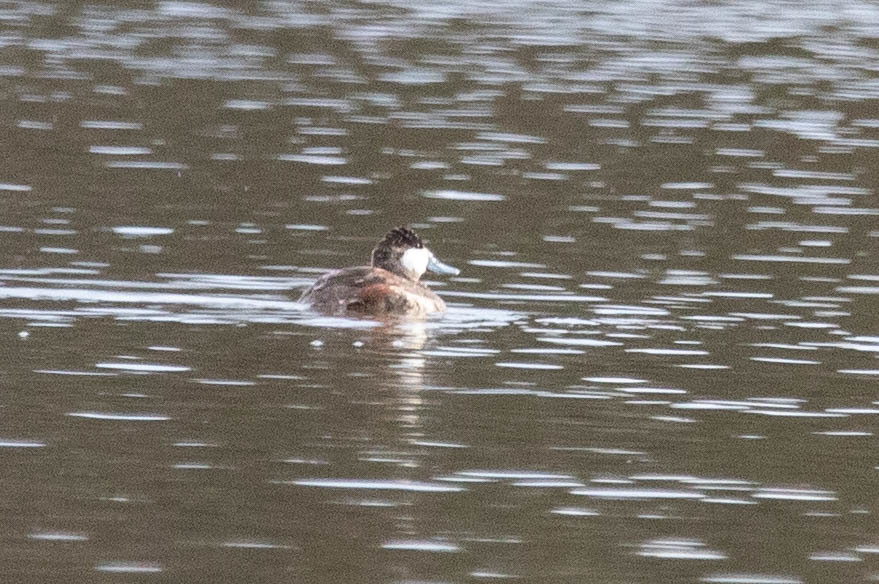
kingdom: Animalia
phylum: Chordata
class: Aves
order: Anseriformes
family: Anatidae
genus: Oxyura
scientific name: Oxyura jamaicensis
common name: Ruddy duck
